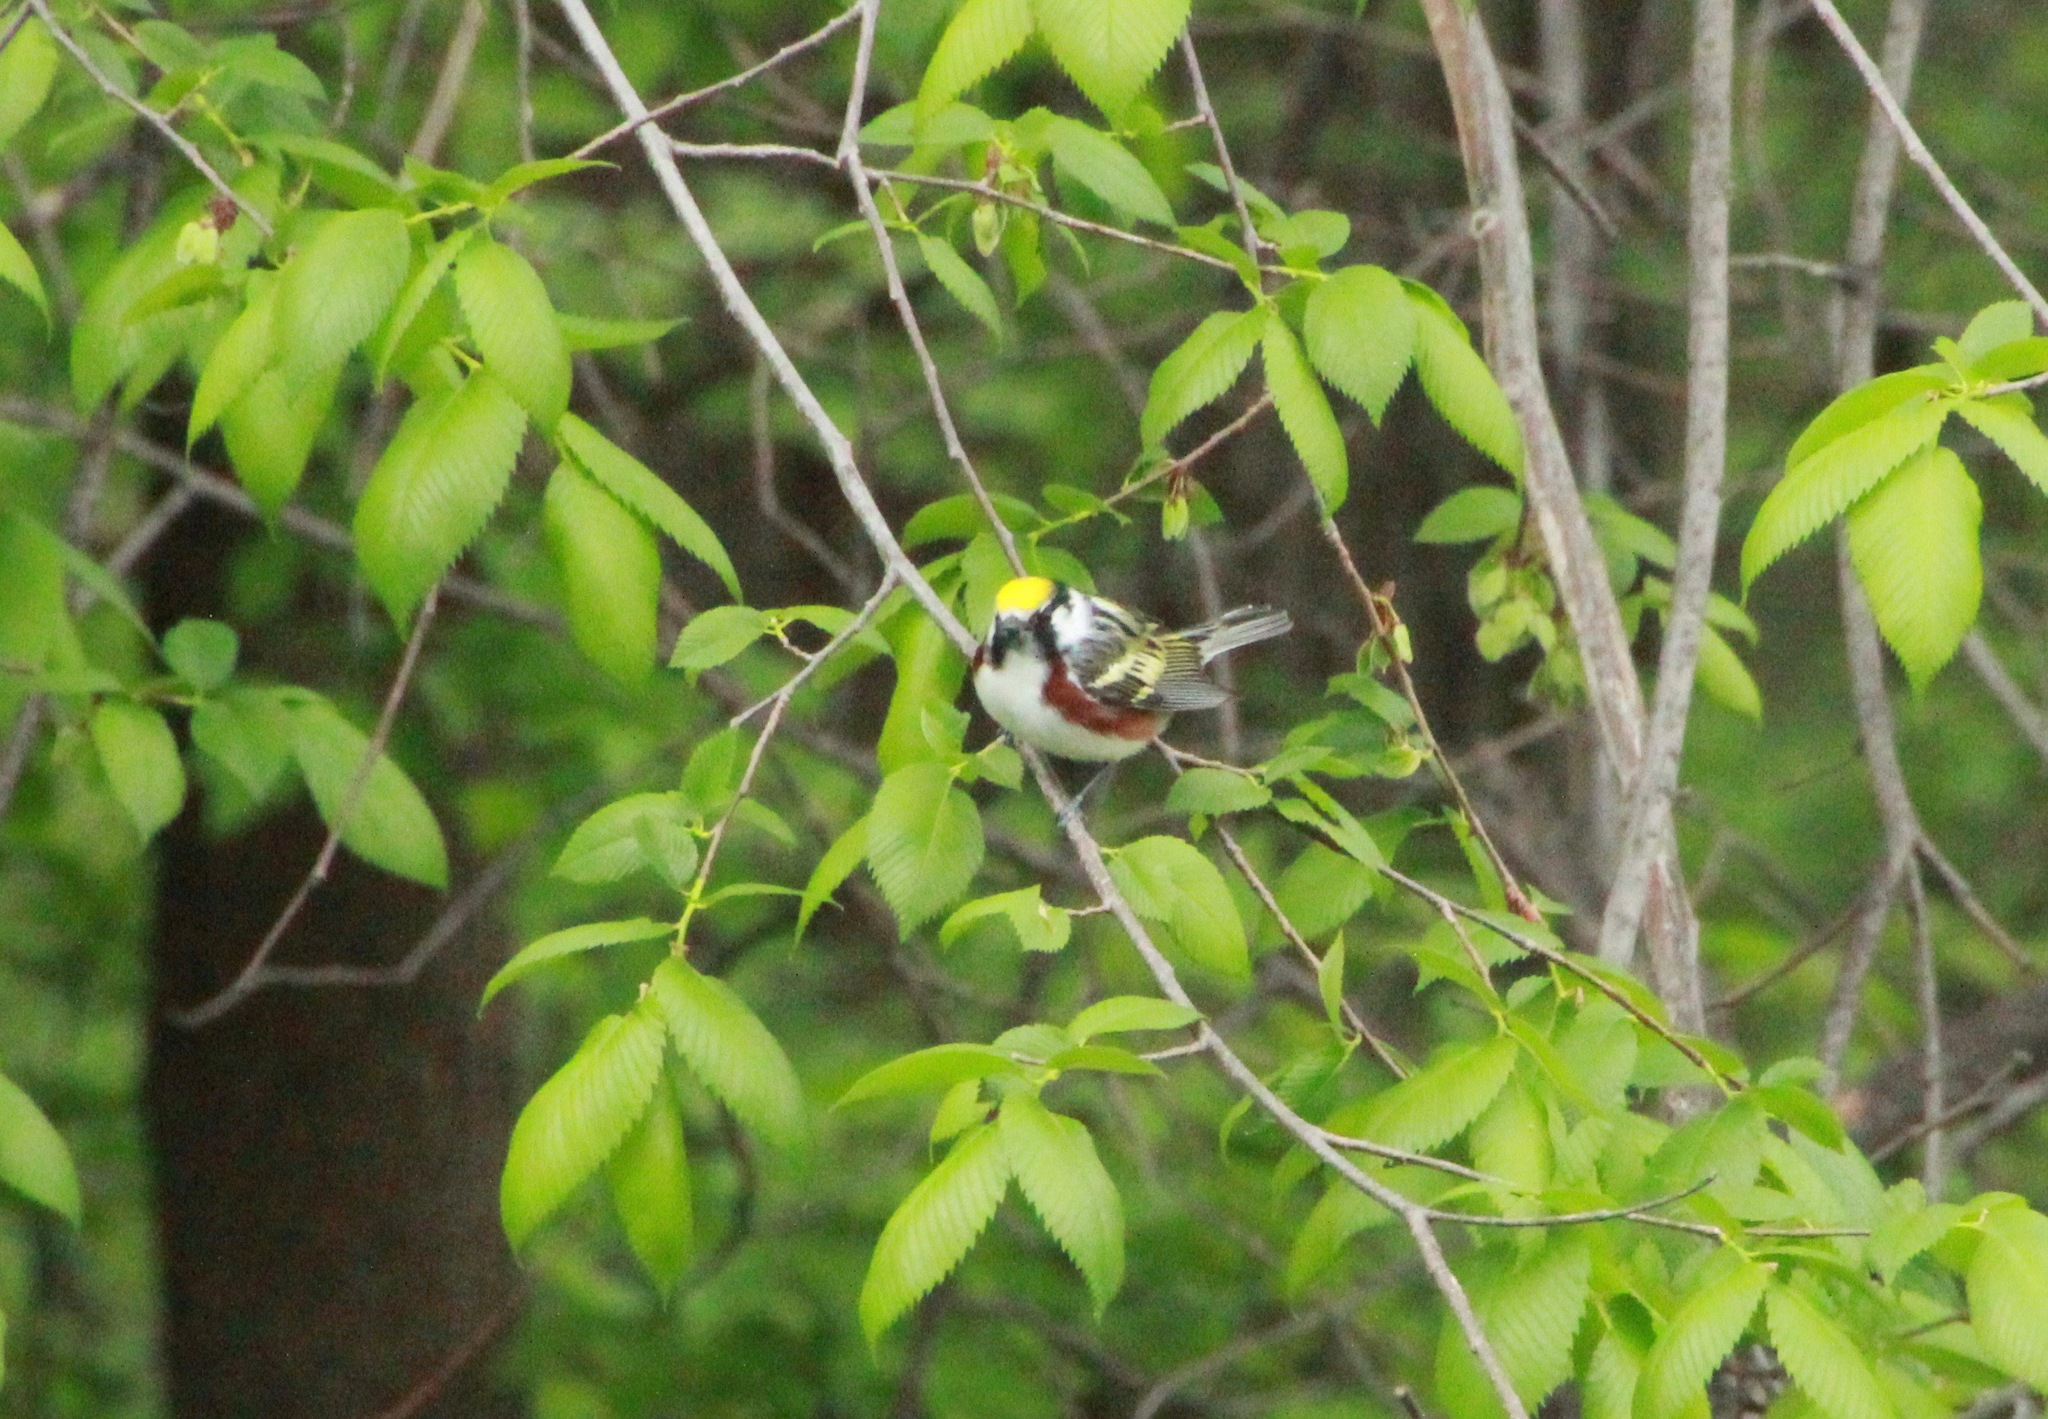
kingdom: Animalia
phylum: Chordata
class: Aves
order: Passeriformes
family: Parulidae
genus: Setophaga
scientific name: Setophaga pensylvanica
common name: Chestnut-sided warbler
